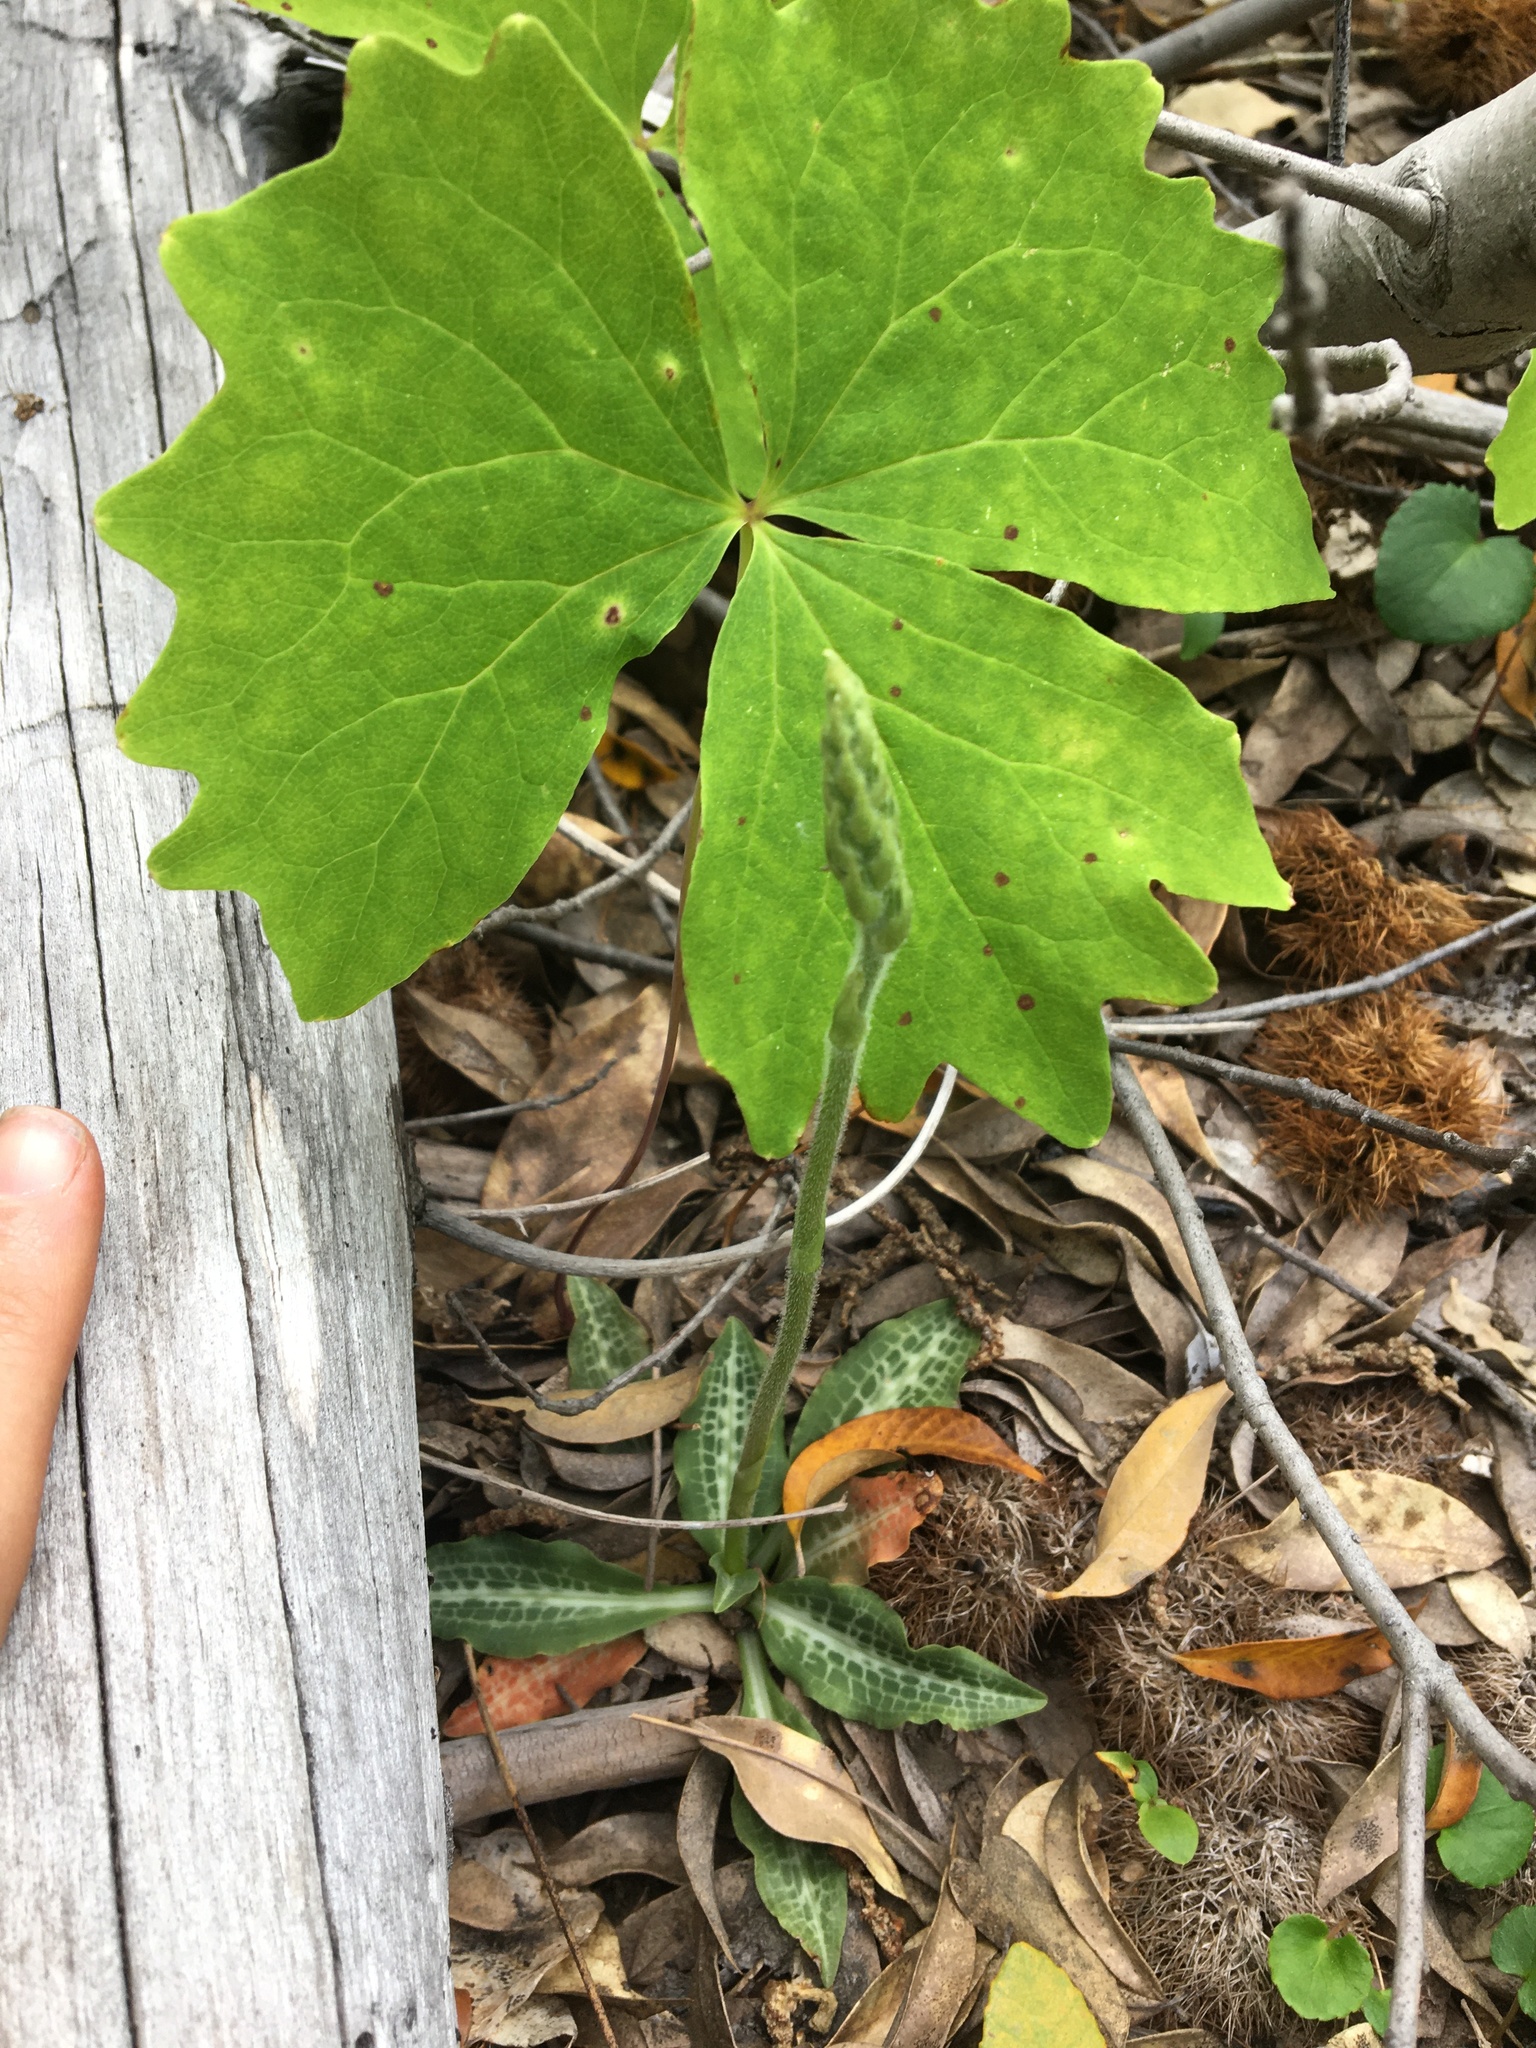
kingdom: Plantae
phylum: Tracheophyta
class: Magnoliopsida
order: Ranunculales
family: Berberidaceae
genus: Achlys
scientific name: Achlys californica
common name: California deer-foot
